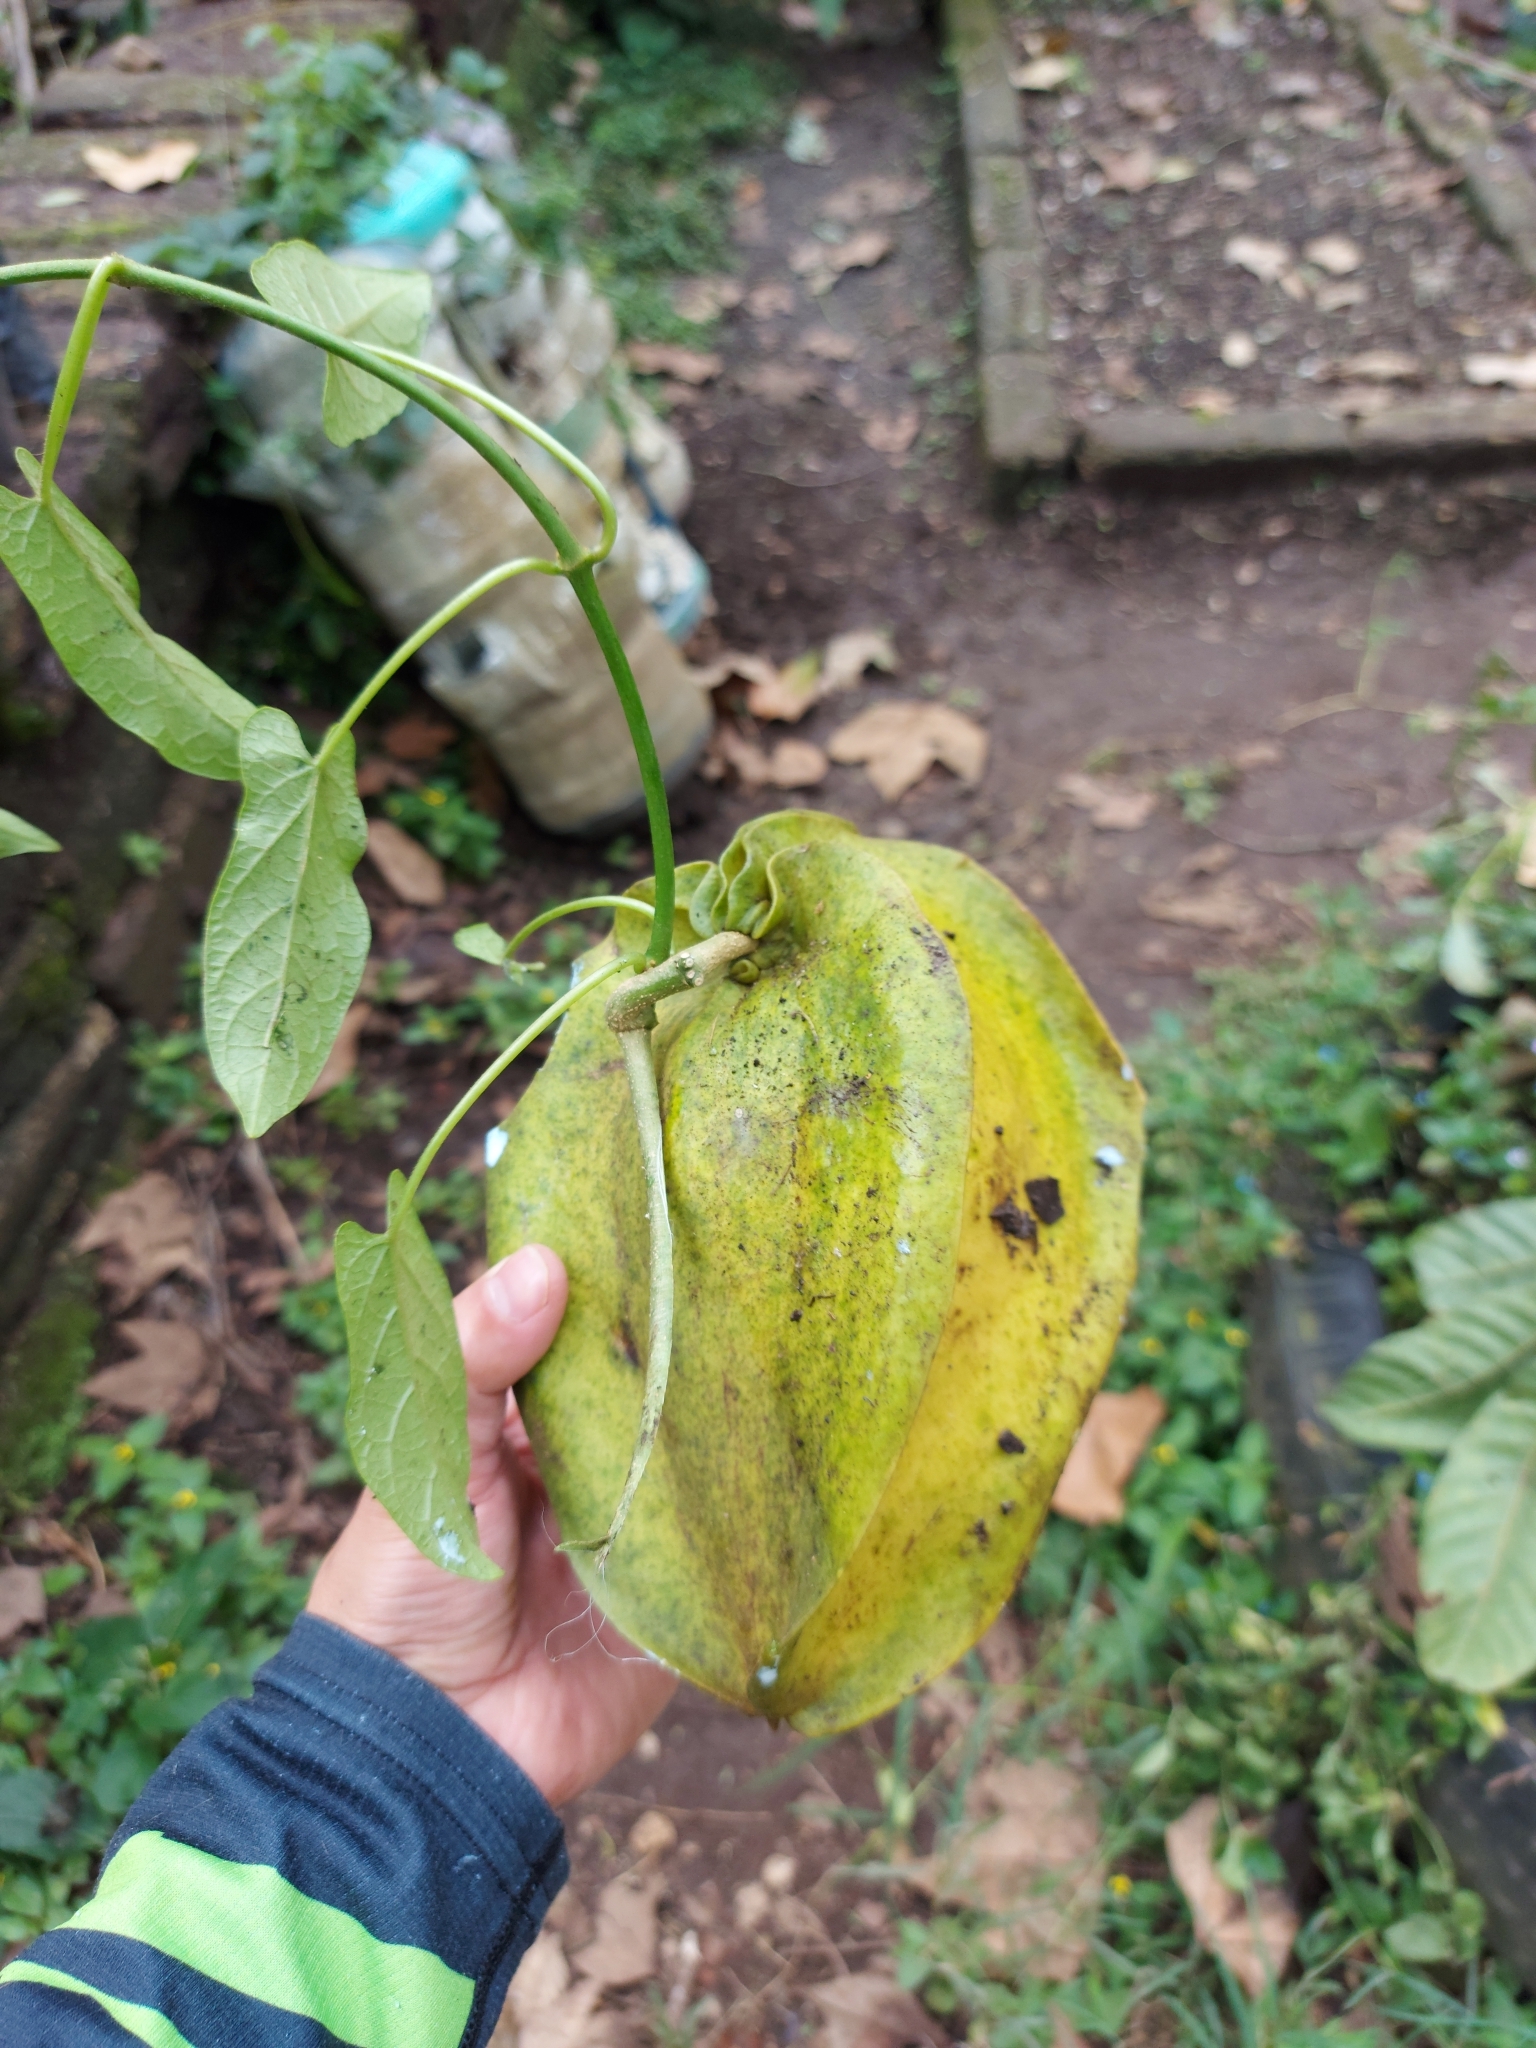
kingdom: Plantae
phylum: Tracheophyta
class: Magnoliopsida
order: Gentianales
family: Apocynaceae
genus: Gonolobus
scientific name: Gonolobus fraternus
